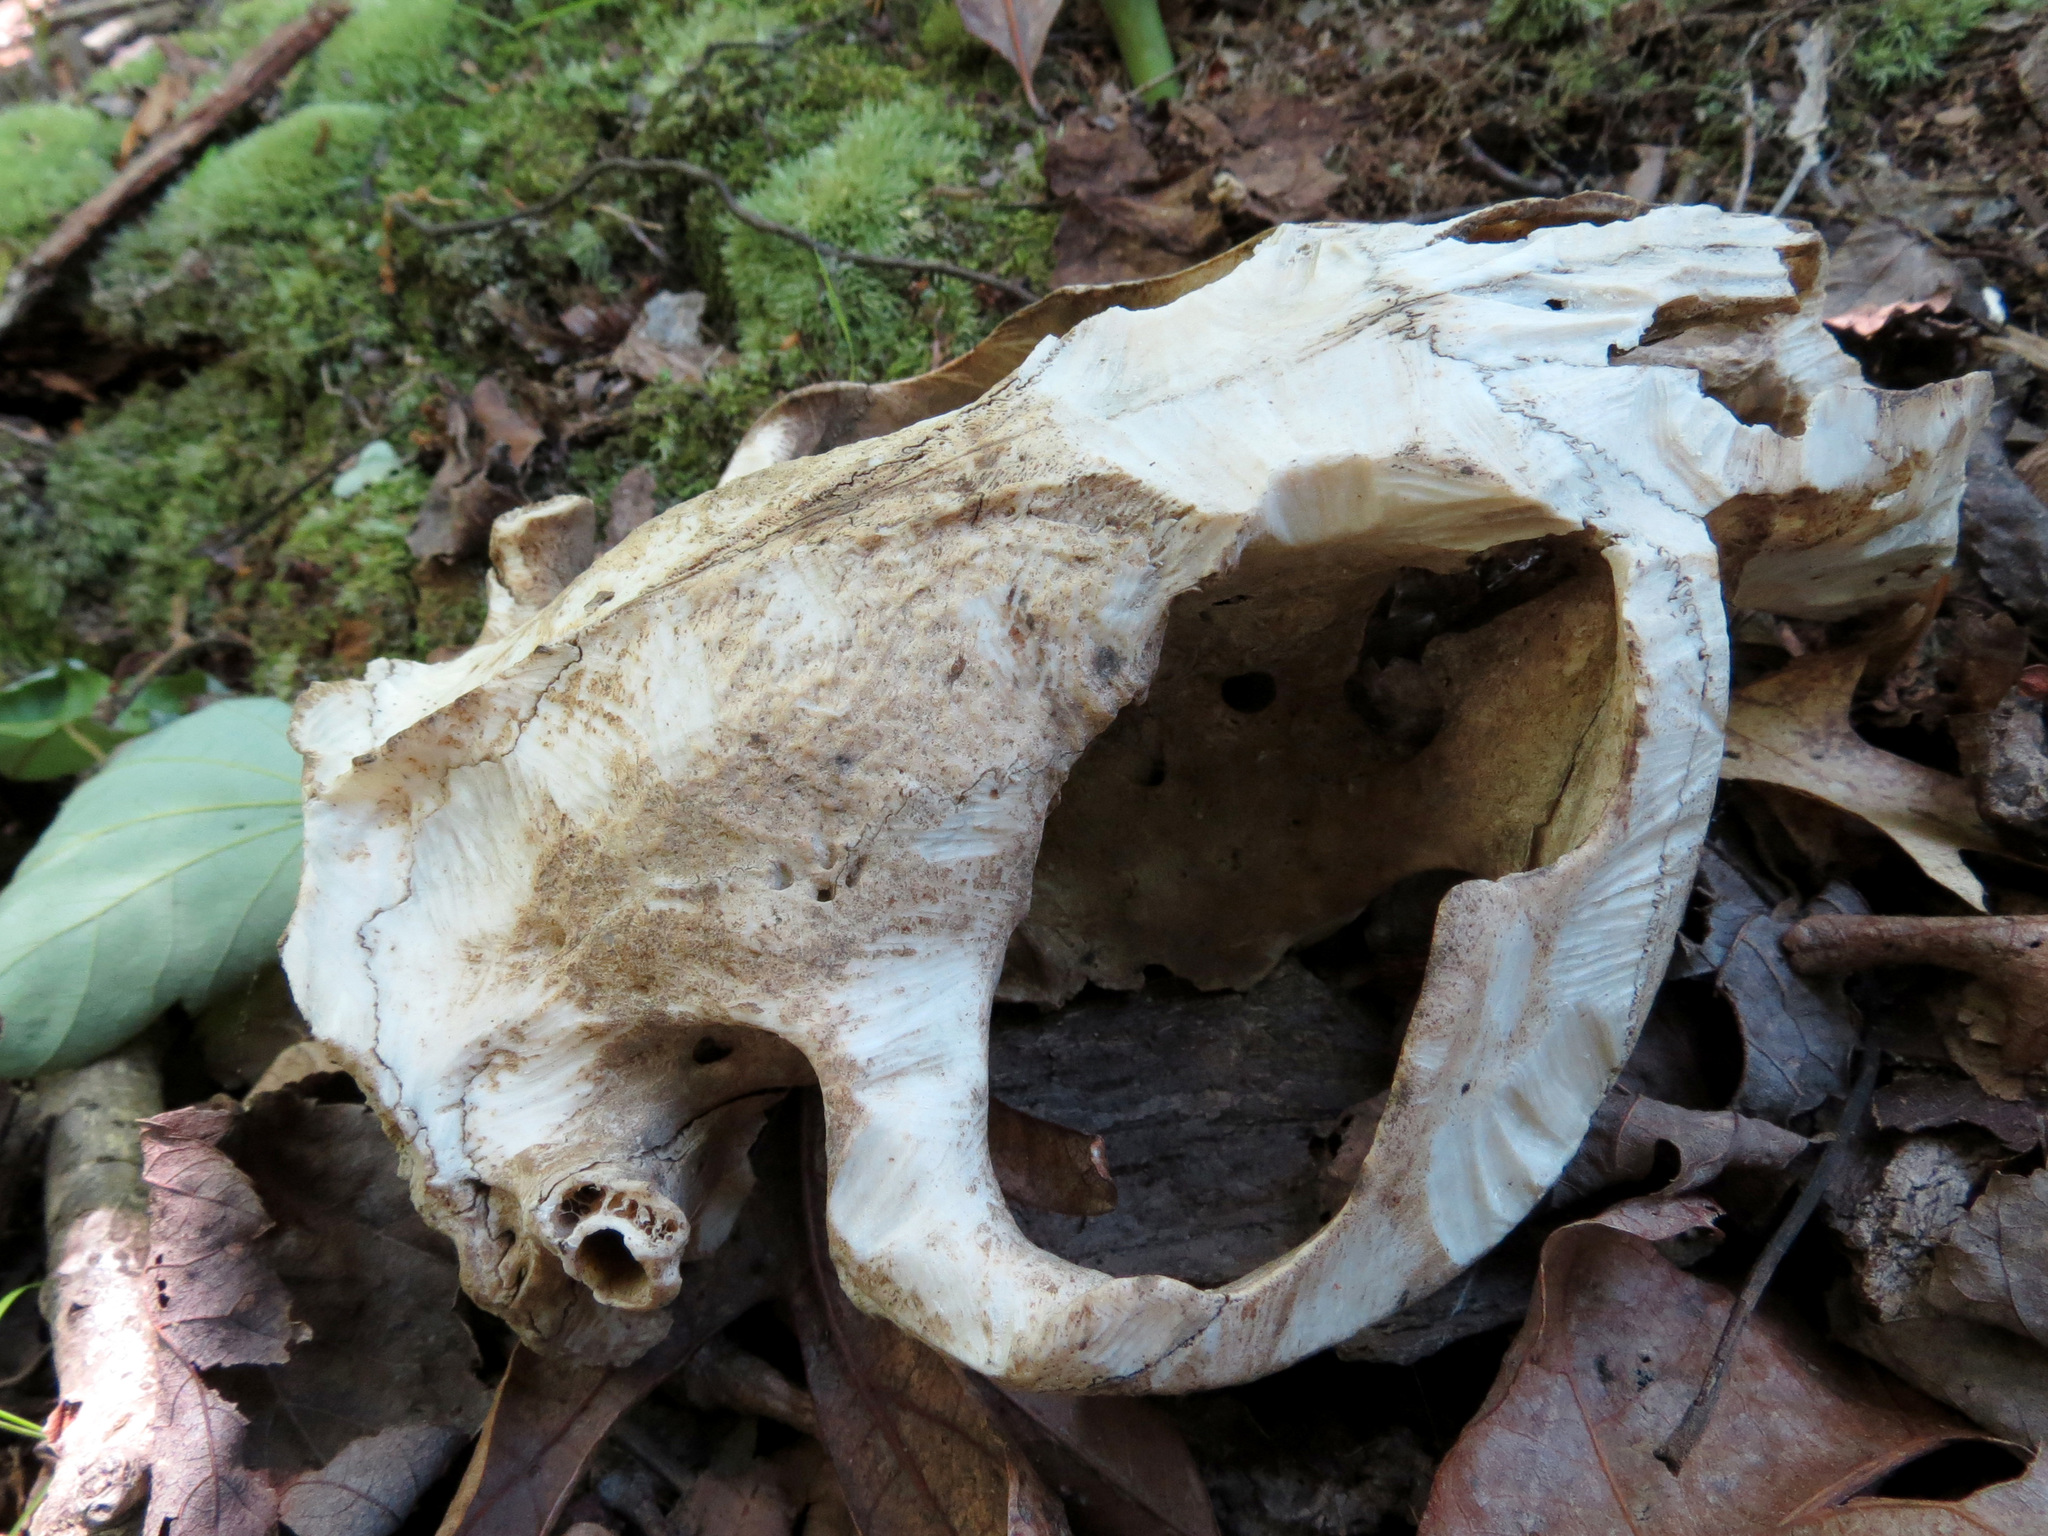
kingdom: Animalia
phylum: Chordata
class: Mammalia
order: Rodentia
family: Castoridae
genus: Castor
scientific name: Castor canadensis
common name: American beaver
